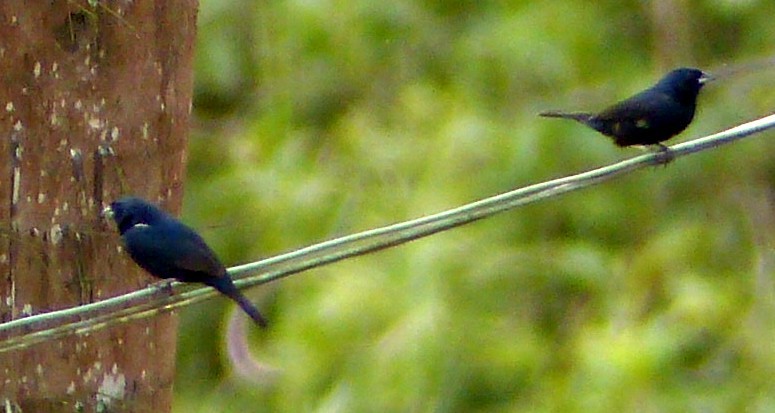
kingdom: Animalia
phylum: Chordata
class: Aves
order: Passeriformes
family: Thraupidae
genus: Volatinia
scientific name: Volatinia jacarina
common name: Blue-black grassquit
